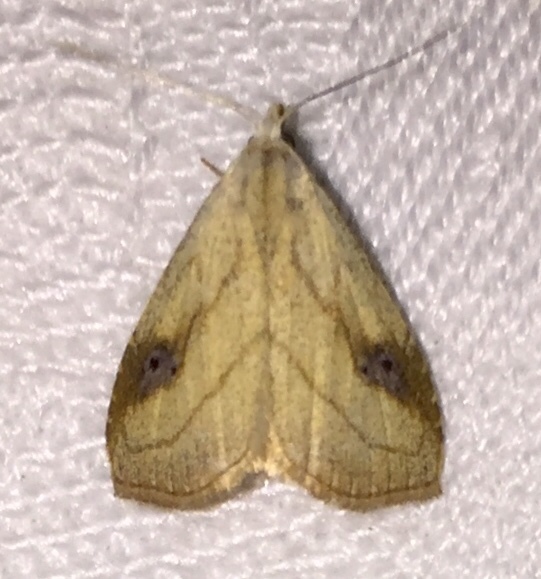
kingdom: Animalia
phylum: Arthropoda
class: Insecta
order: Lepidoptera
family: Erebidae
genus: Rivula
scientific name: Rivula propinqualis
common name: Spotted grass moth
